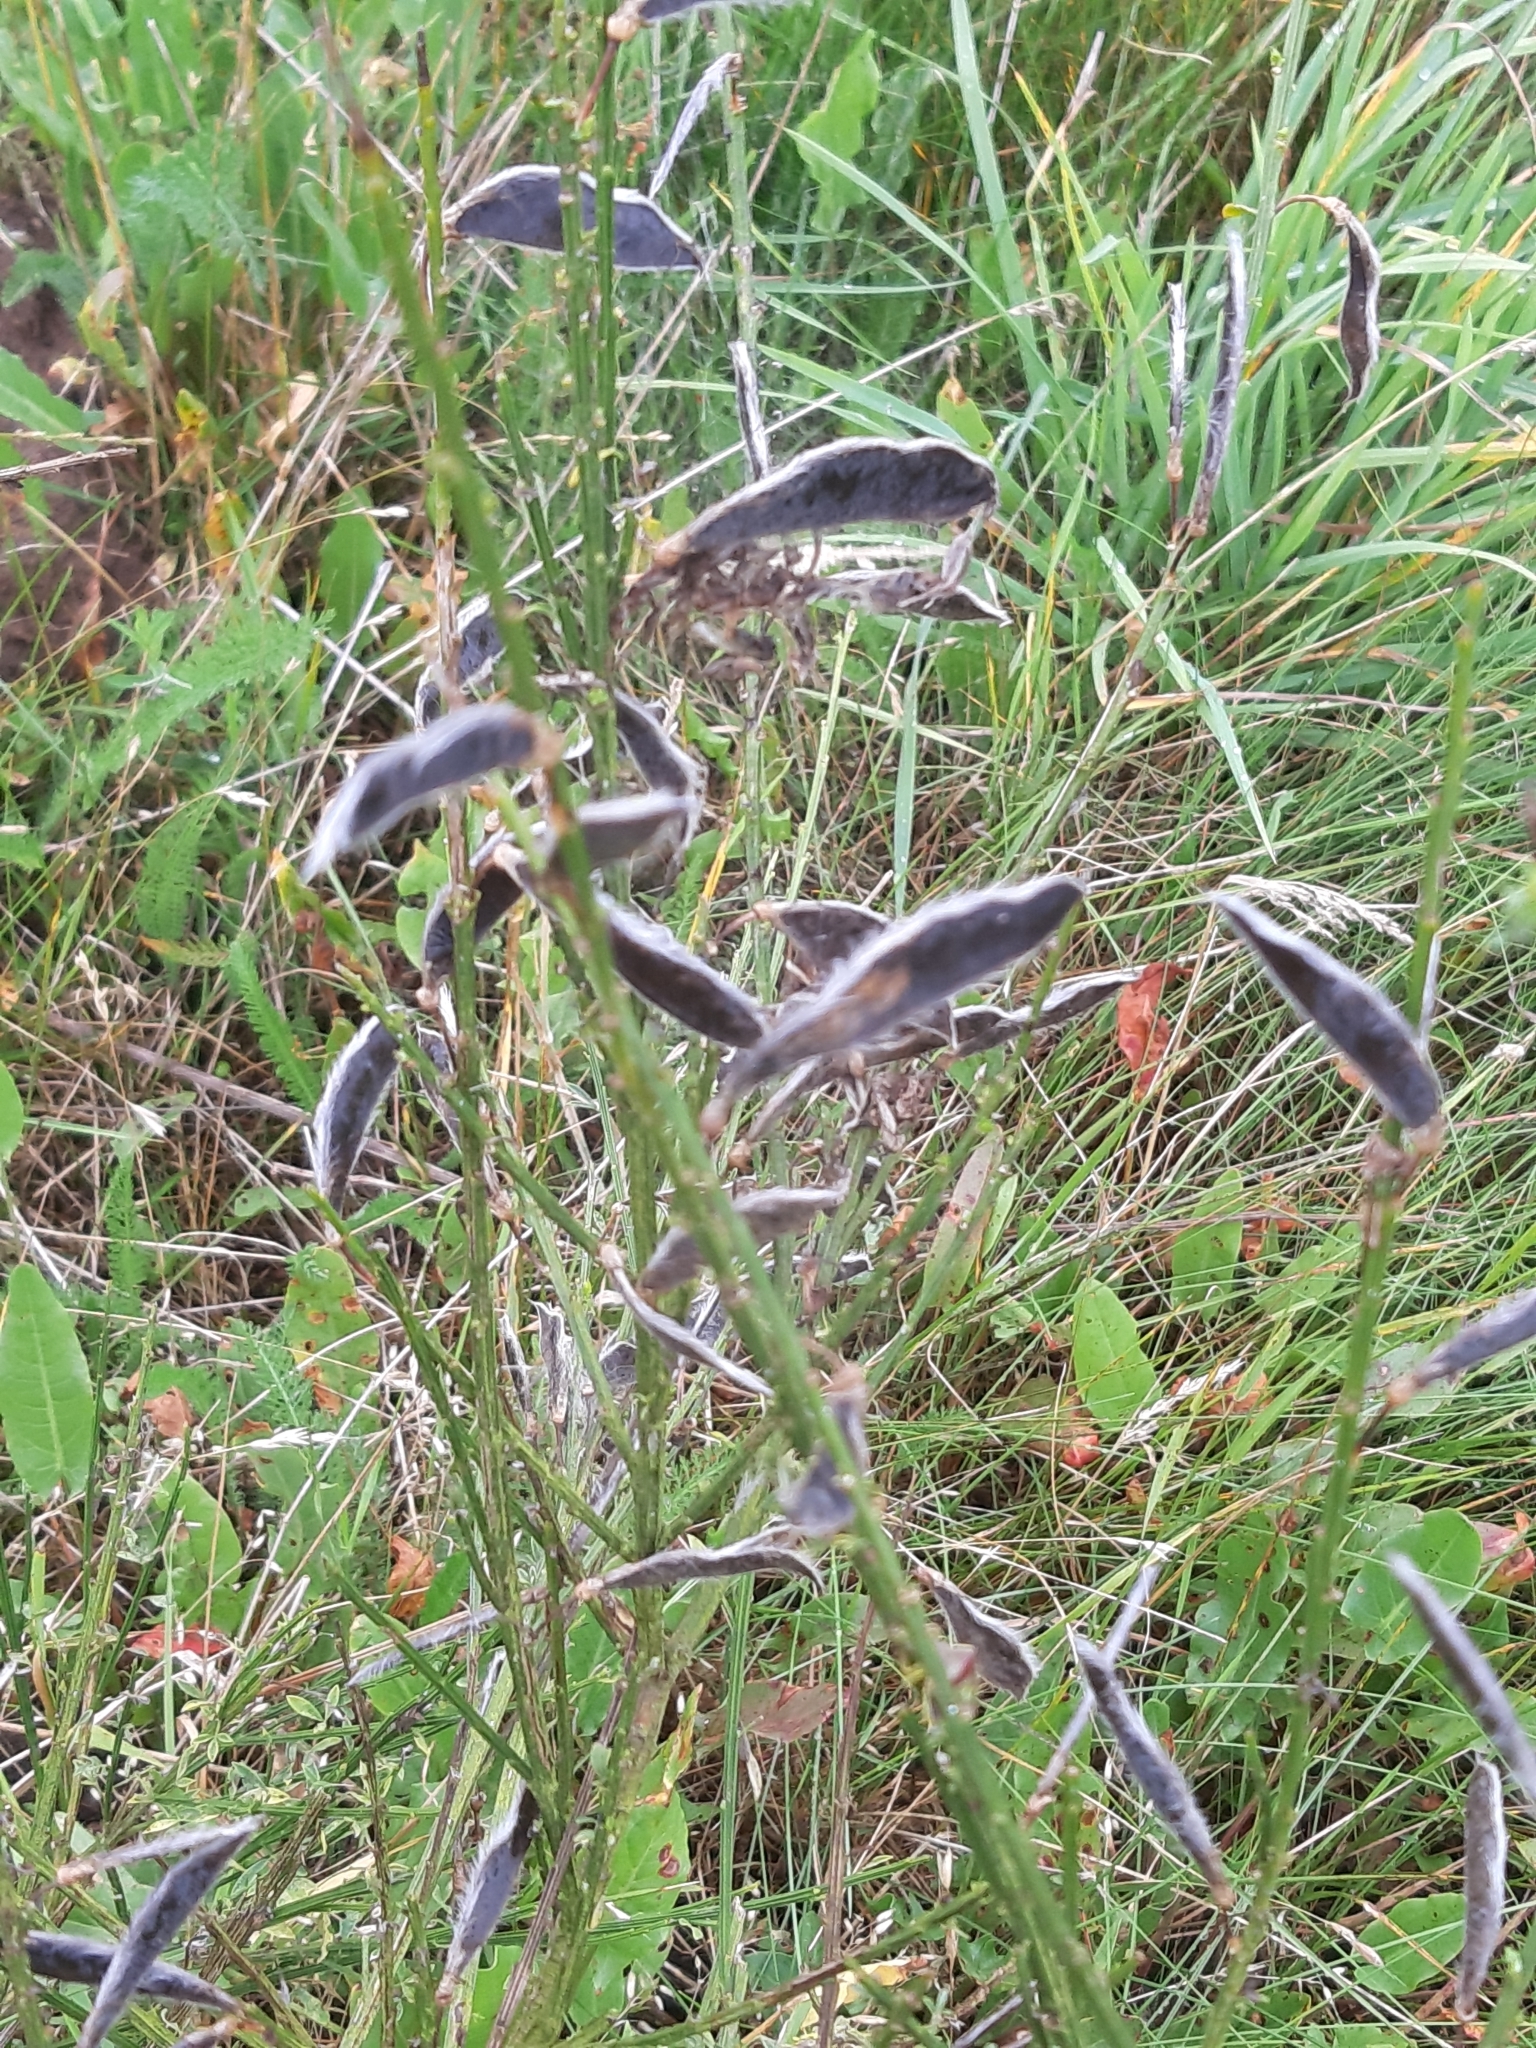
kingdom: Plantae
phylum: Tracheophyta
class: Magnoliopsida
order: Fabales
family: Fabaceae
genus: Cytisus
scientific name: Cytisus scoparius
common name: Scotch broom
